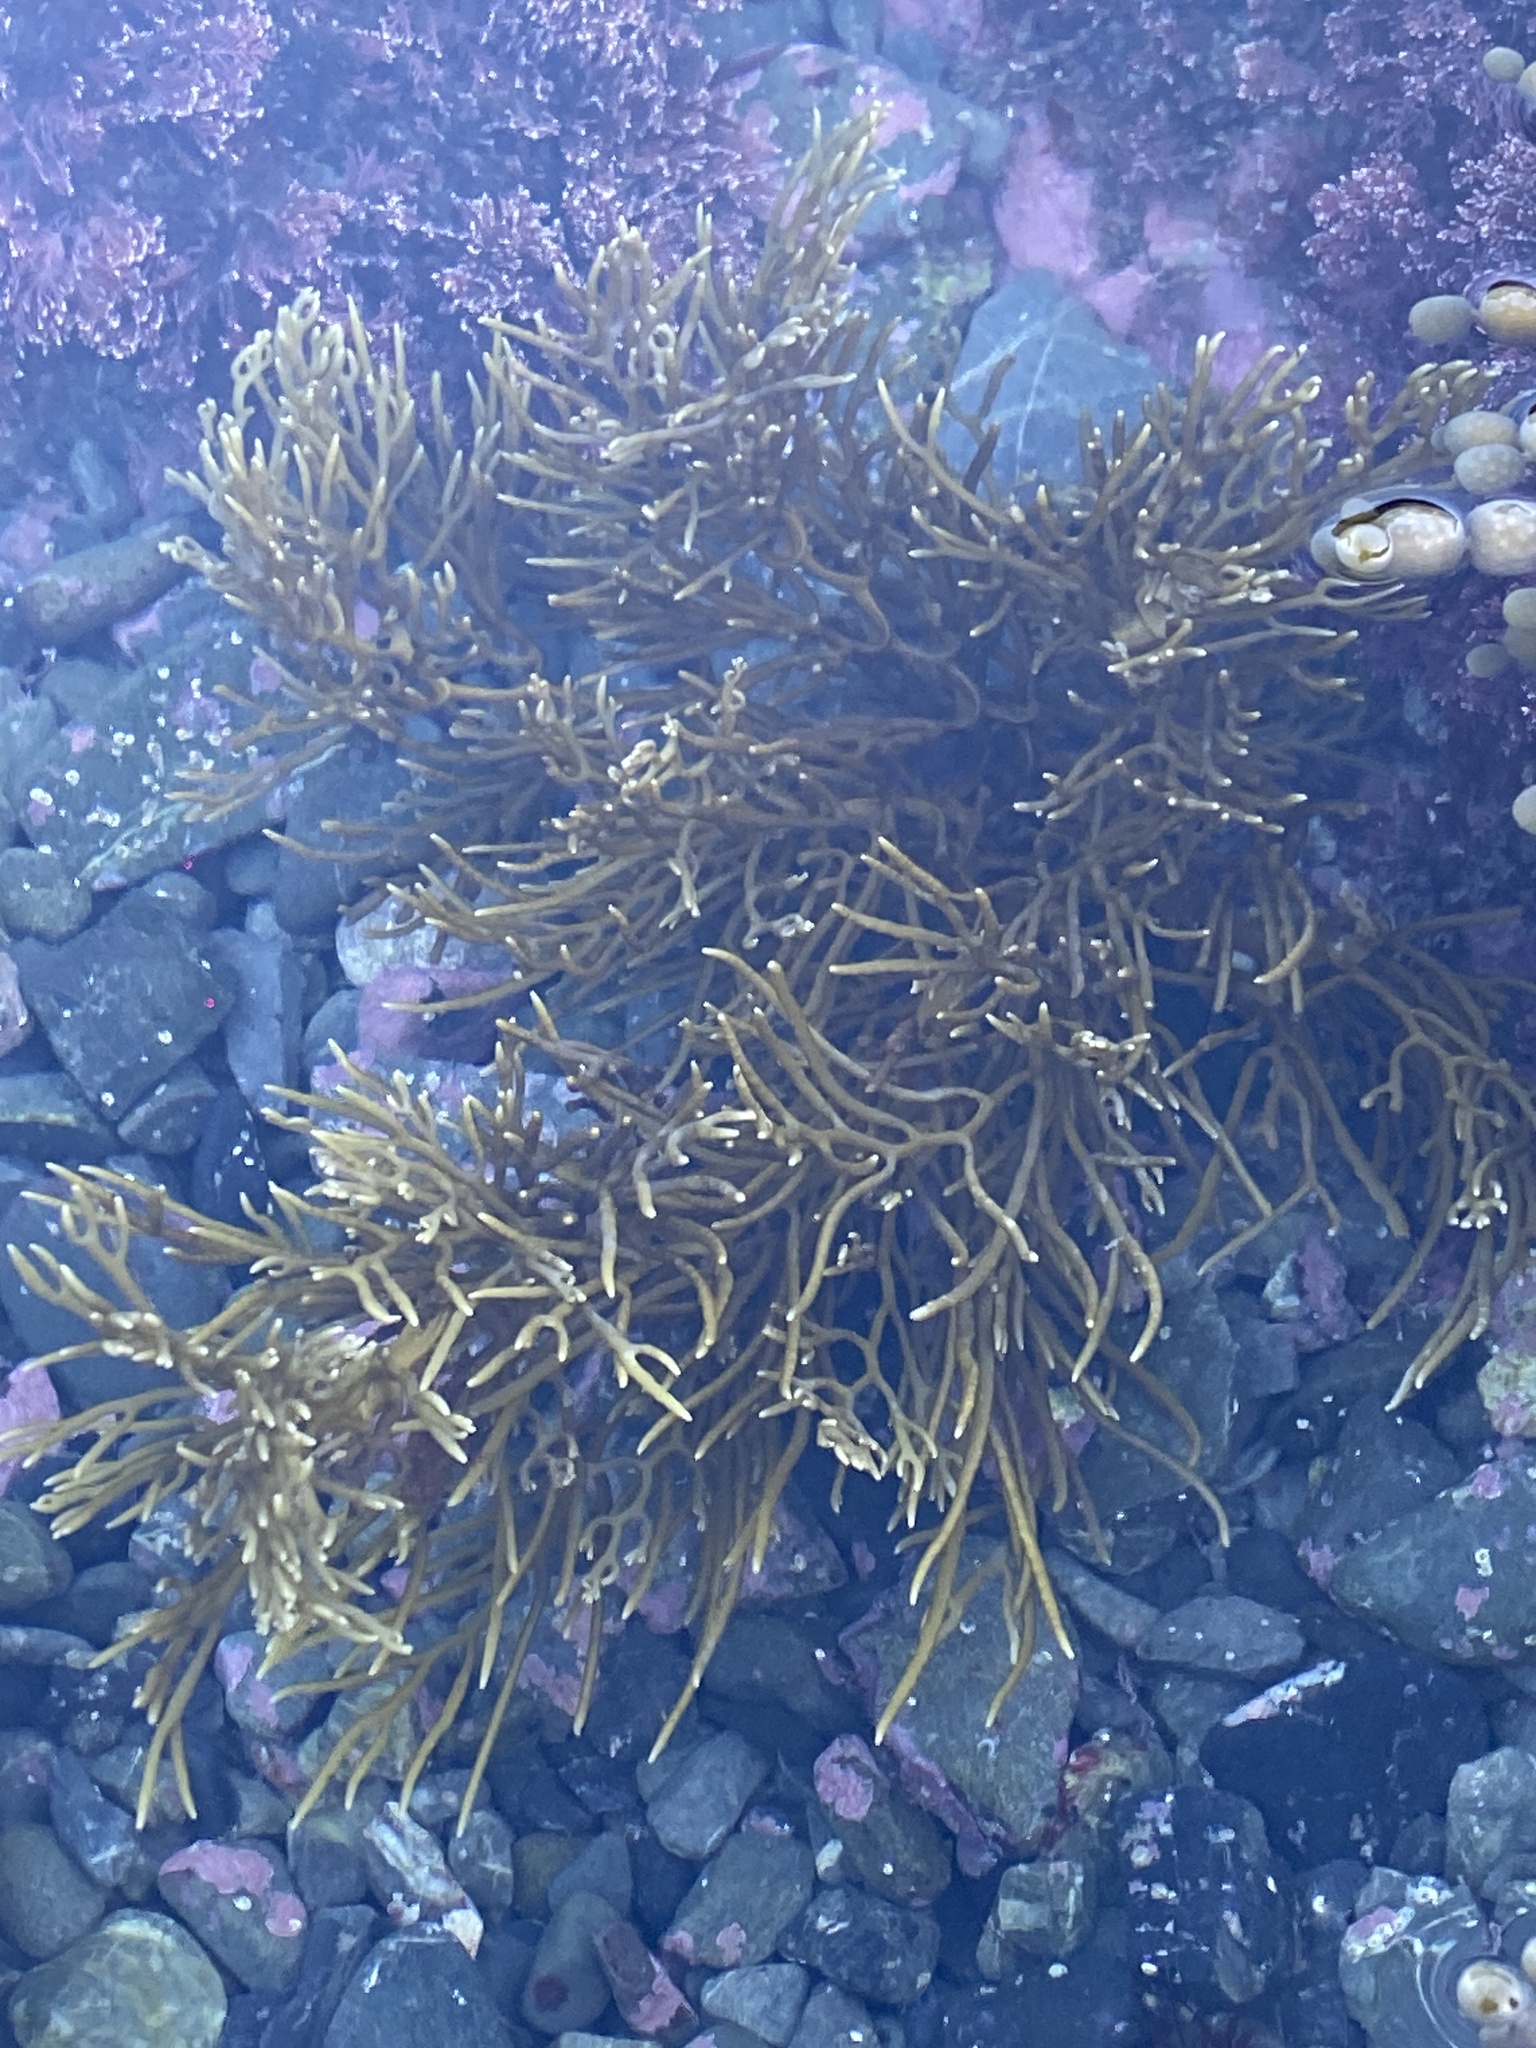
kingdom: Chromista
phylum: Ochrophyta
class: Phaeophyceae
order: Fucales
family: Sargassaceae
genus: Cystophora
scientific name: Cystophora retroflexa
